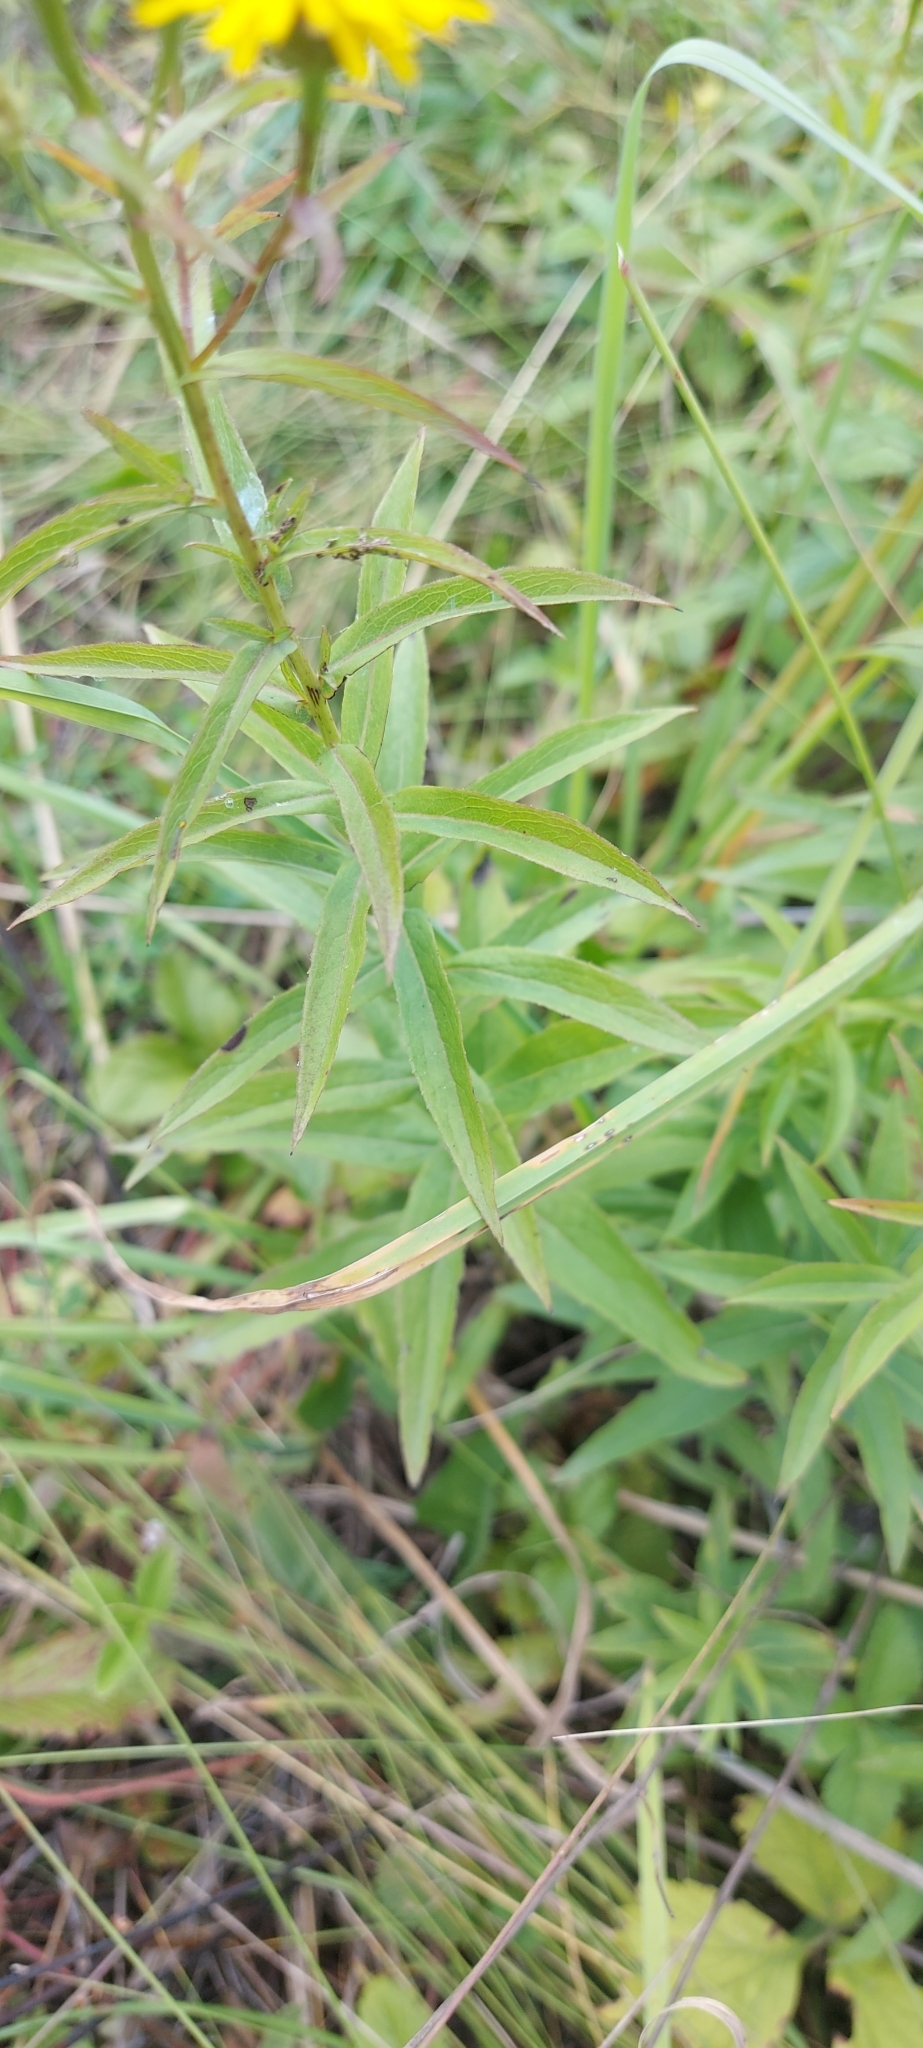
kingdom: Plantae
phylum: Tracheophyta
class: Magnoliopsida
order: Asterales
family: Asteraceae
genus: Pentanema
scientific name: Pentanema salicinum
